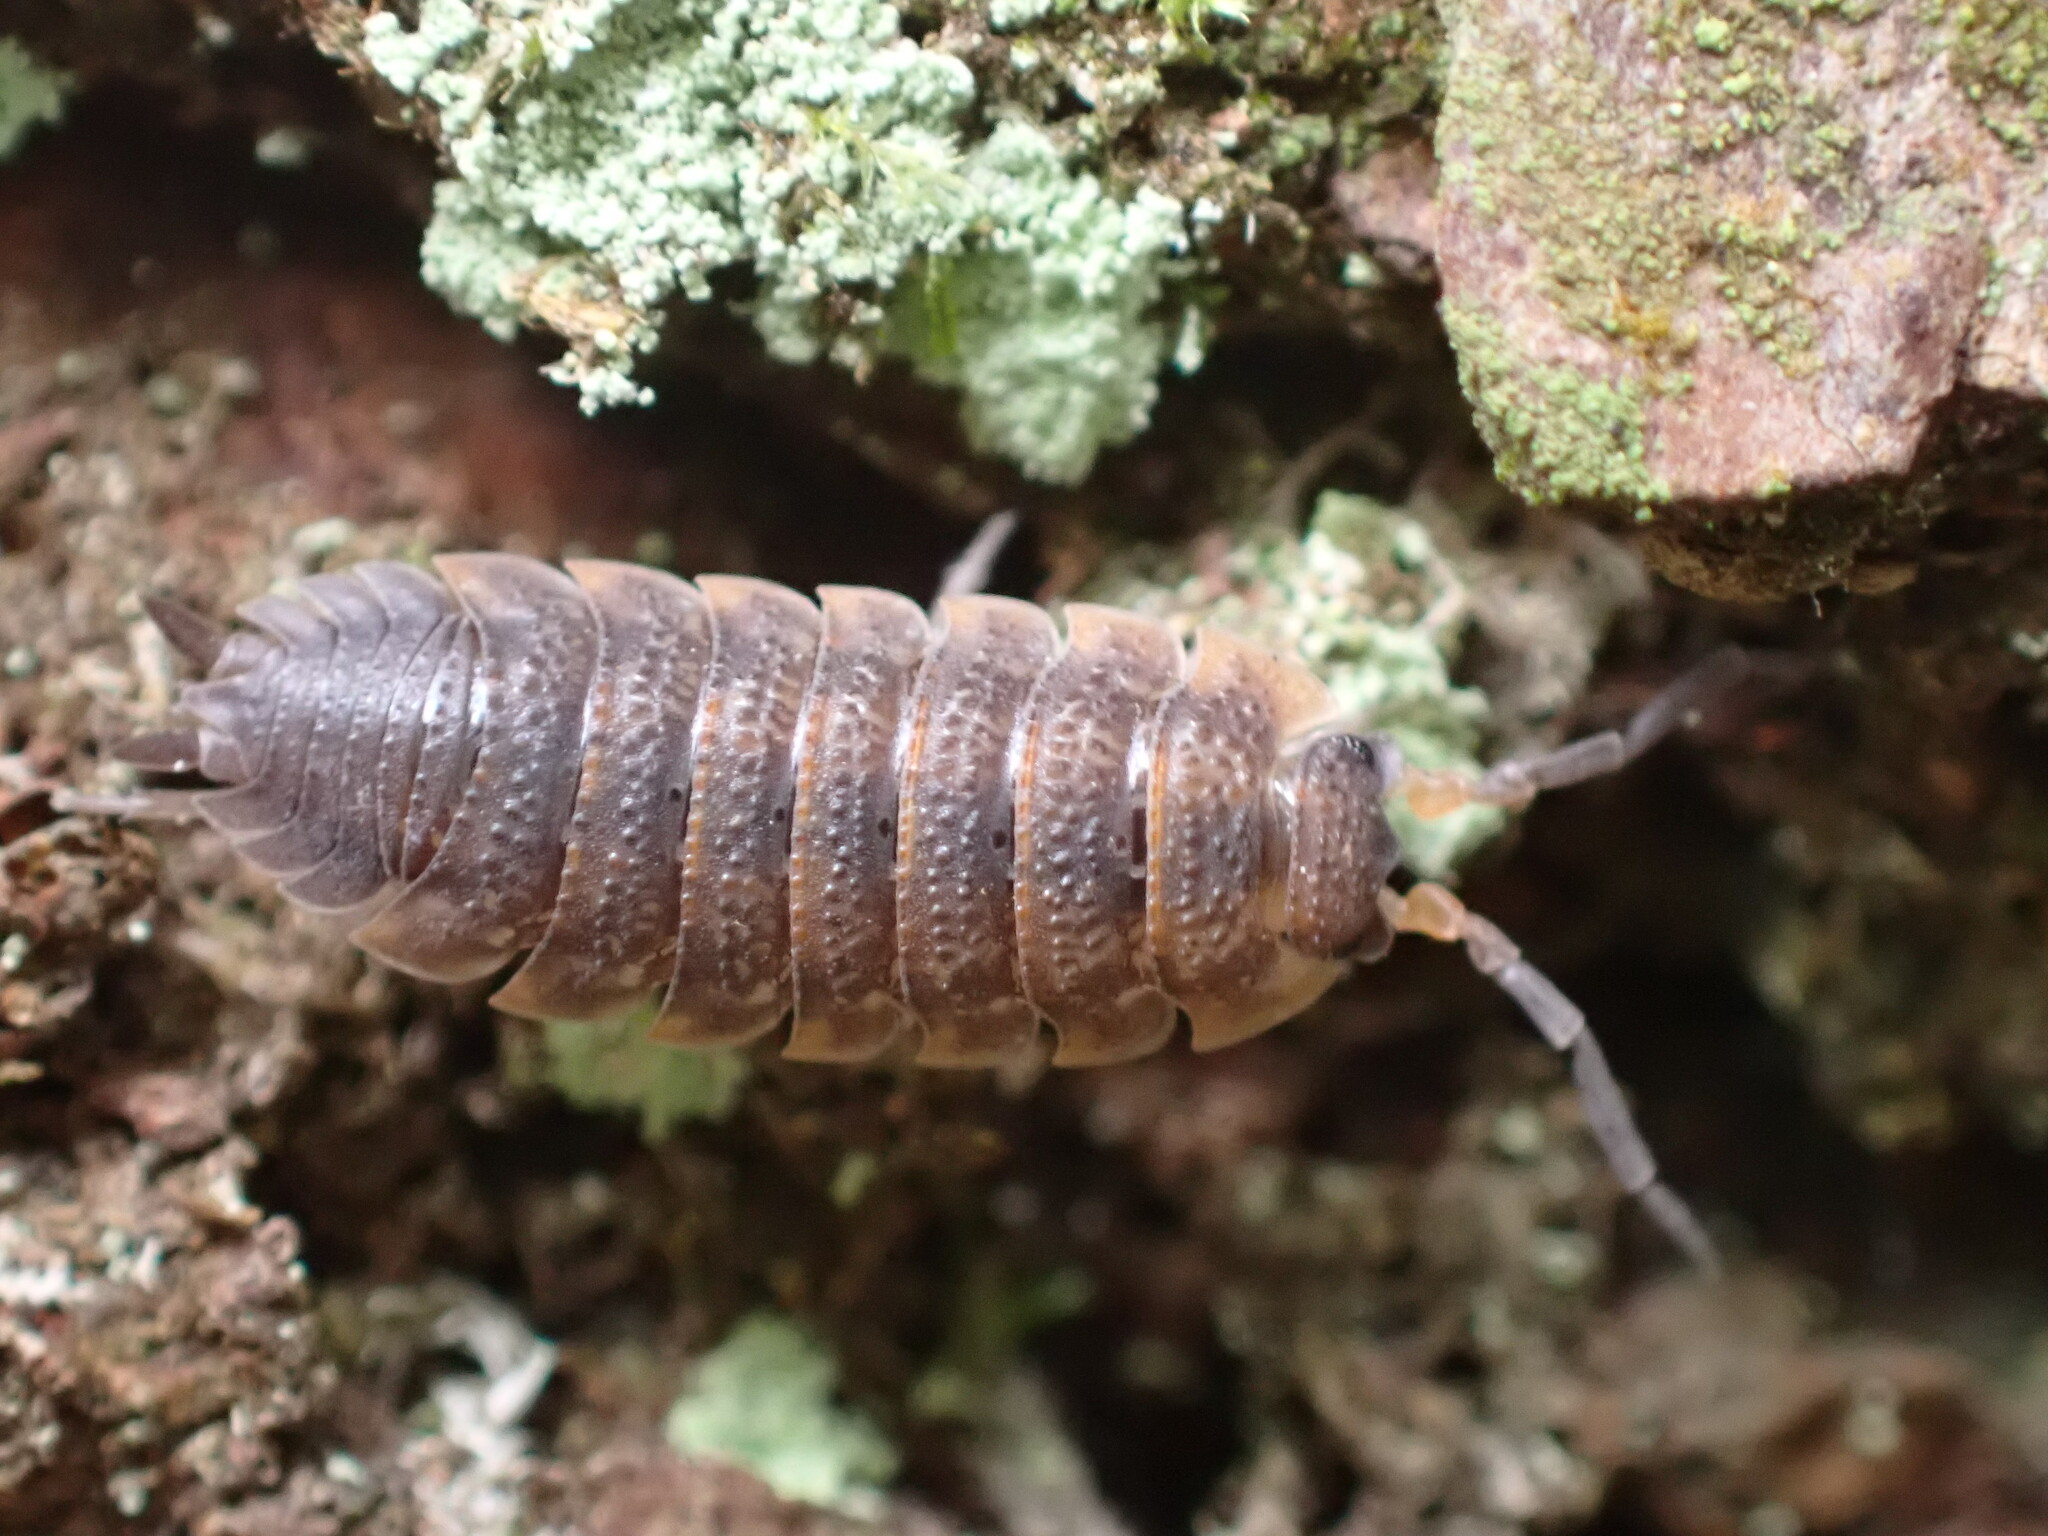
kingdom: Animalia
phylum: Arthropoda
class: Malacostraca
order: Isopoda
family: Porcellionidae
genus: Porcellio
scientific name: Porcellio scaber
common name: Common rough woodlouse
